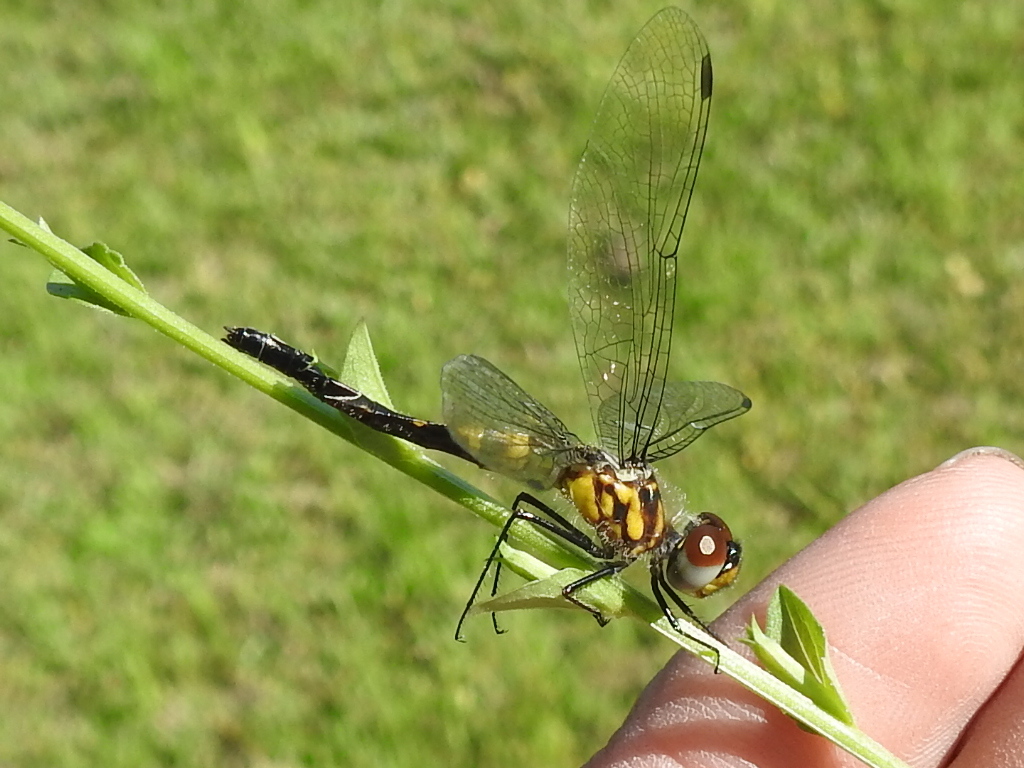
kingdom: Animalia
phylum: Arthropoda
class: Insecta
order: Odonata
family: Libellulidae
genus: Celithemis
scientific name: Celithemis verna
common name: Double-ringed pennant
